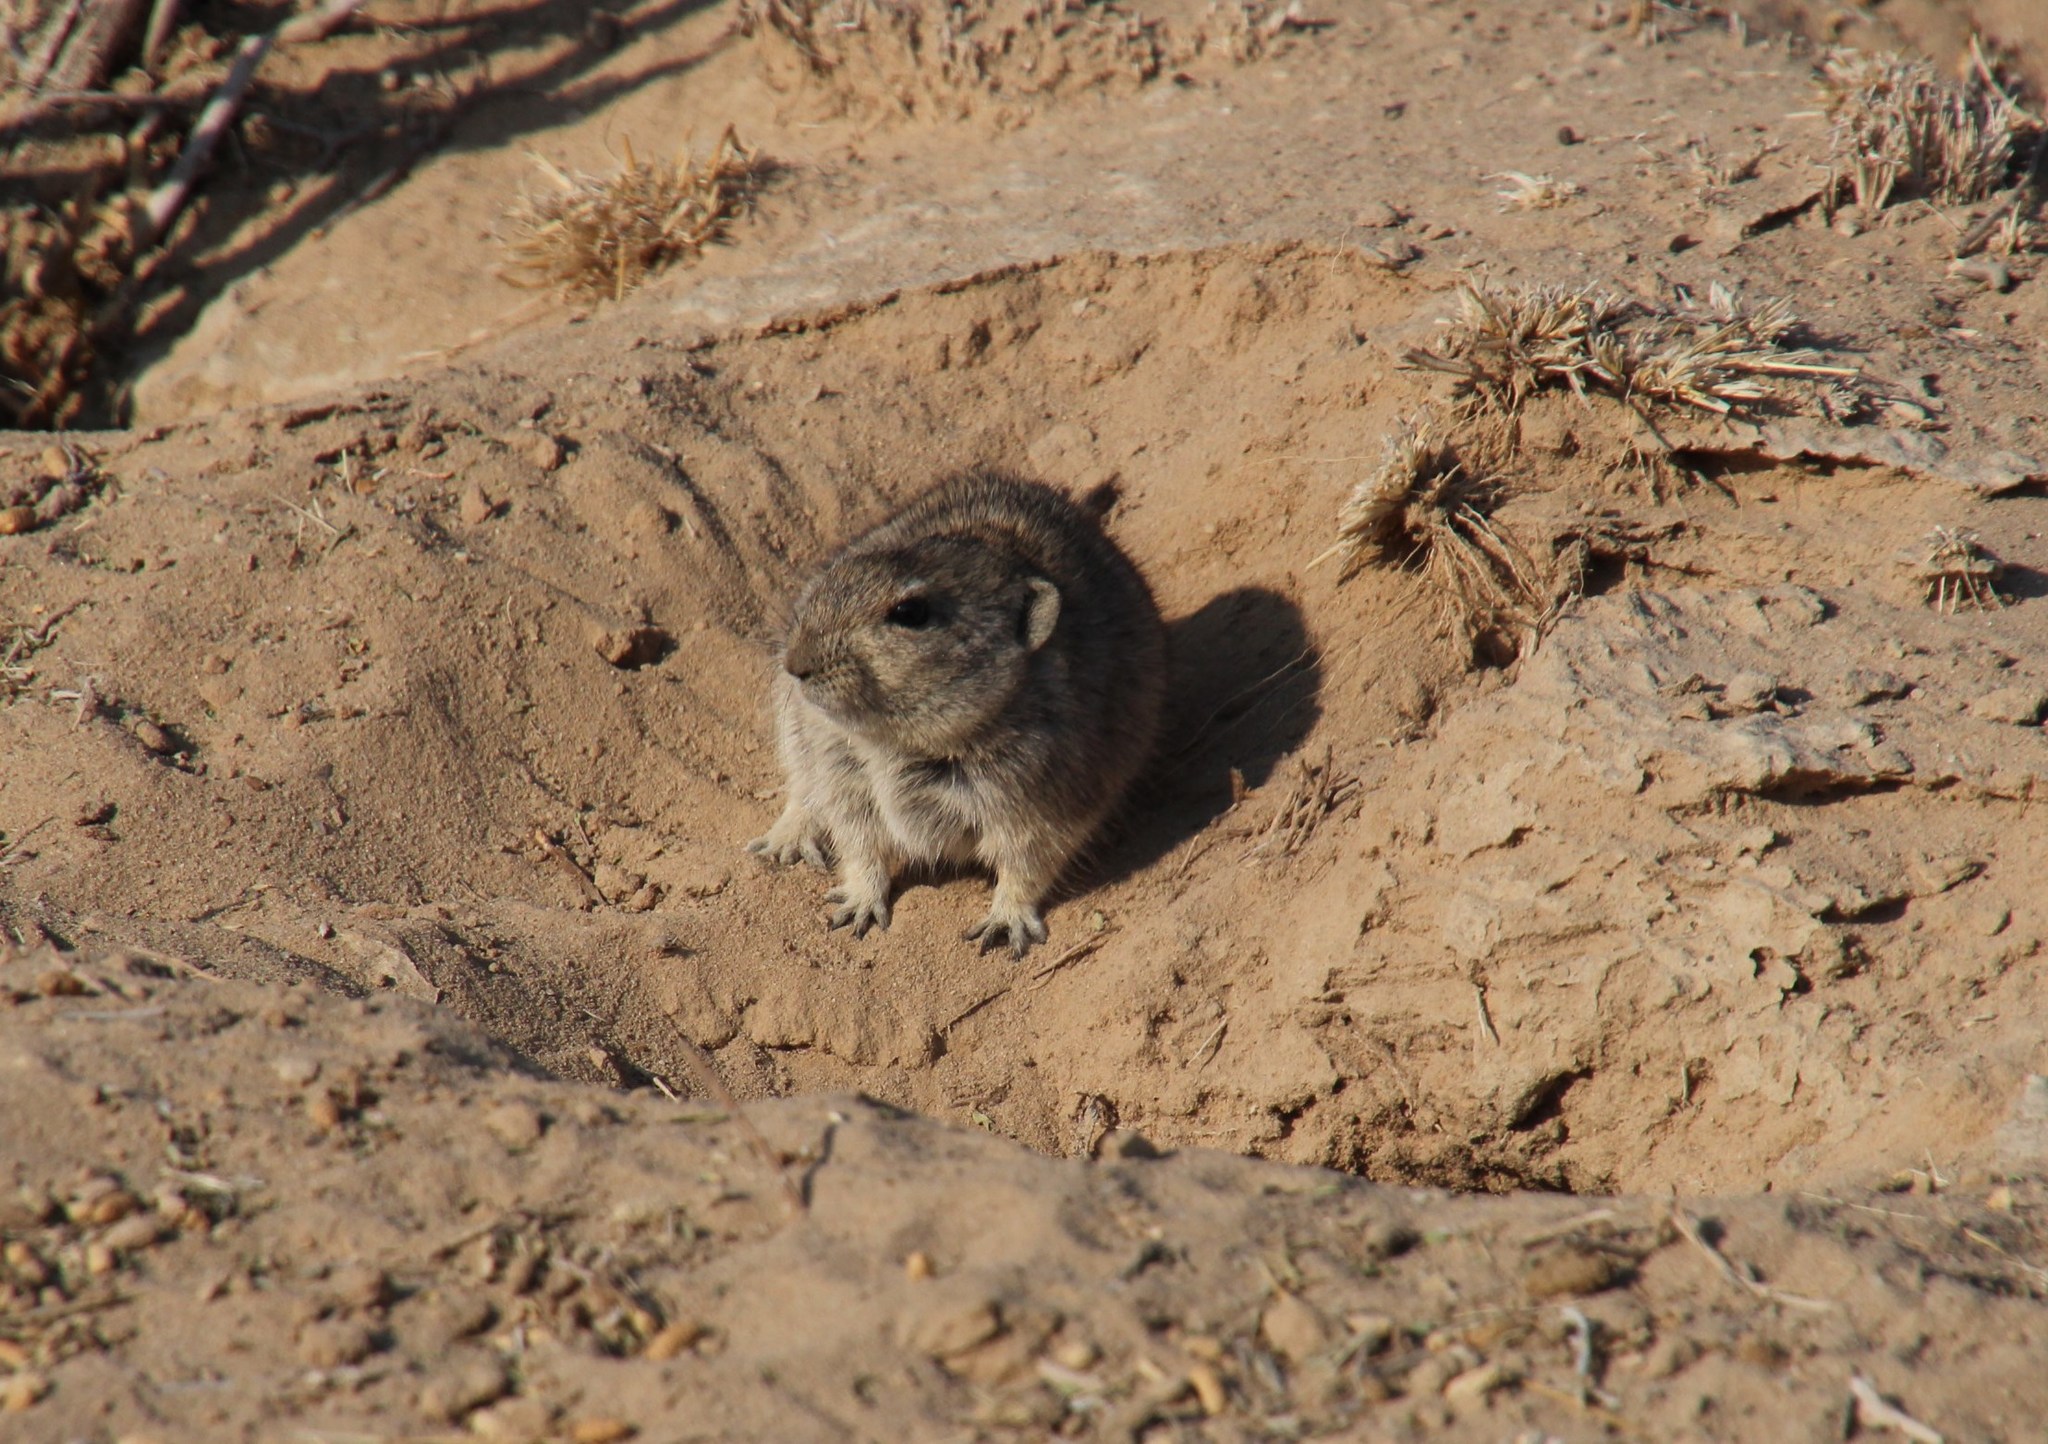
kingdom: Animalia
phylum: Chordata
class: Mammalia
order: Rodentia
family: Muridae
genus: Parotomys
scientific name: Parotomys brantsii
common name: Brants's whistling rat
